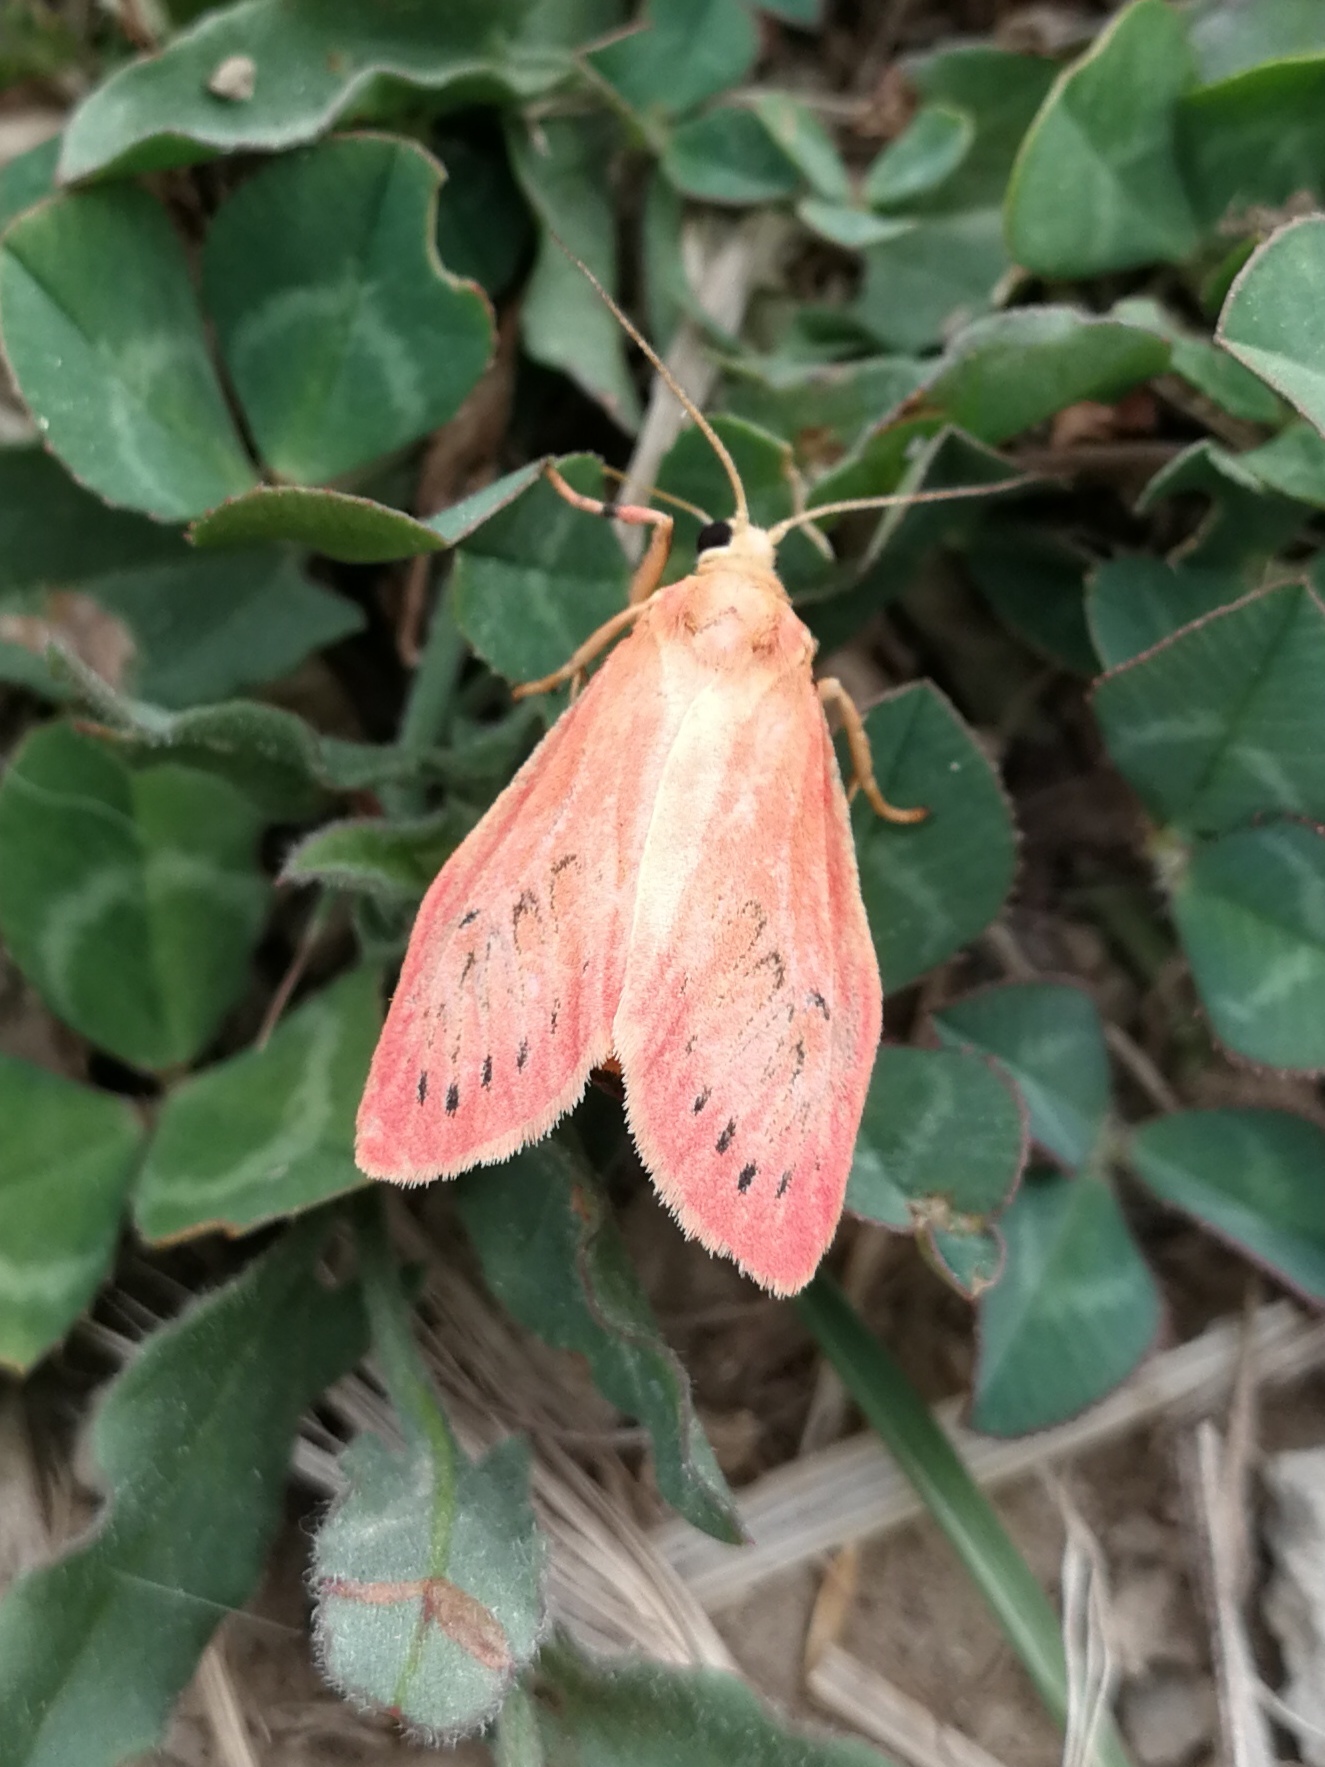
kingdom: Animalia
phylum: Arthropoda
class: Insecta
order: Lepidoptera
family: Erebidae
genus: Miltochrista
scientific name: Miltochrista miniata
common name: Rosy footman
